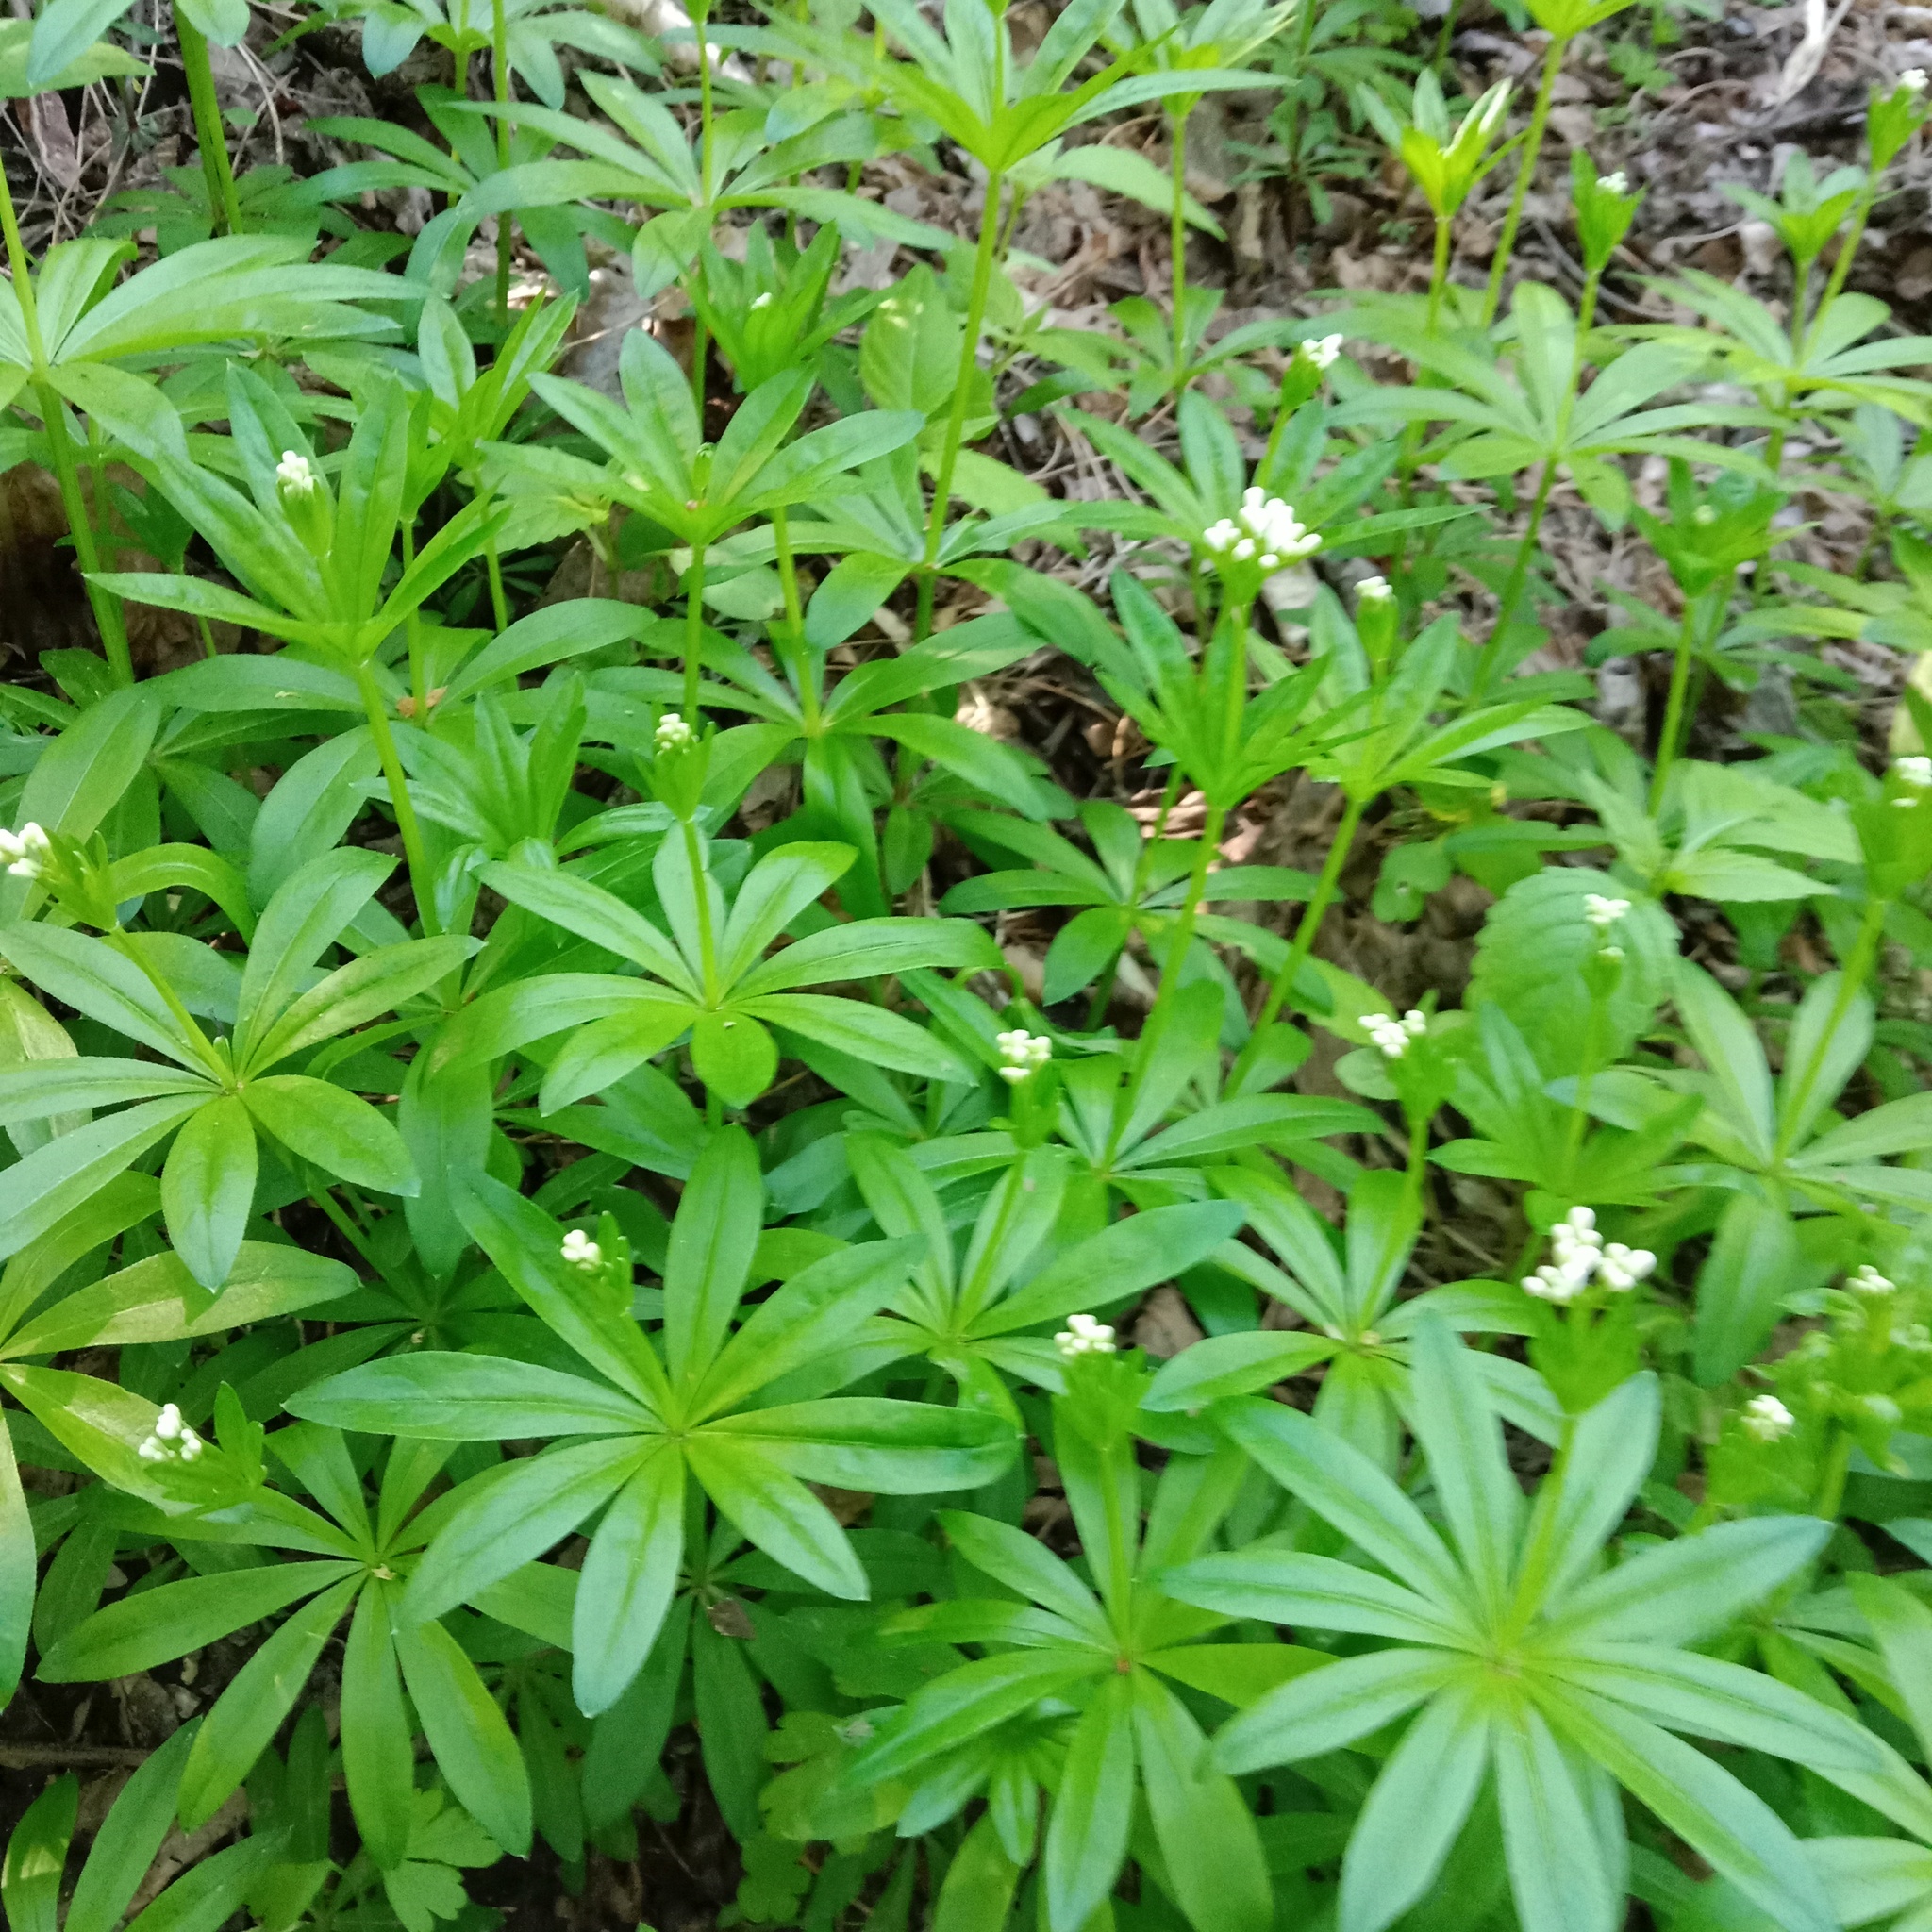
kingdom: Plantae
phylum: Tracheophyta
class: Magnoliopsida
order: Gentianales
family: Rubiaceae
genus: Galium
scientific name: Galium odoratum
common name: Sweet woodruff
